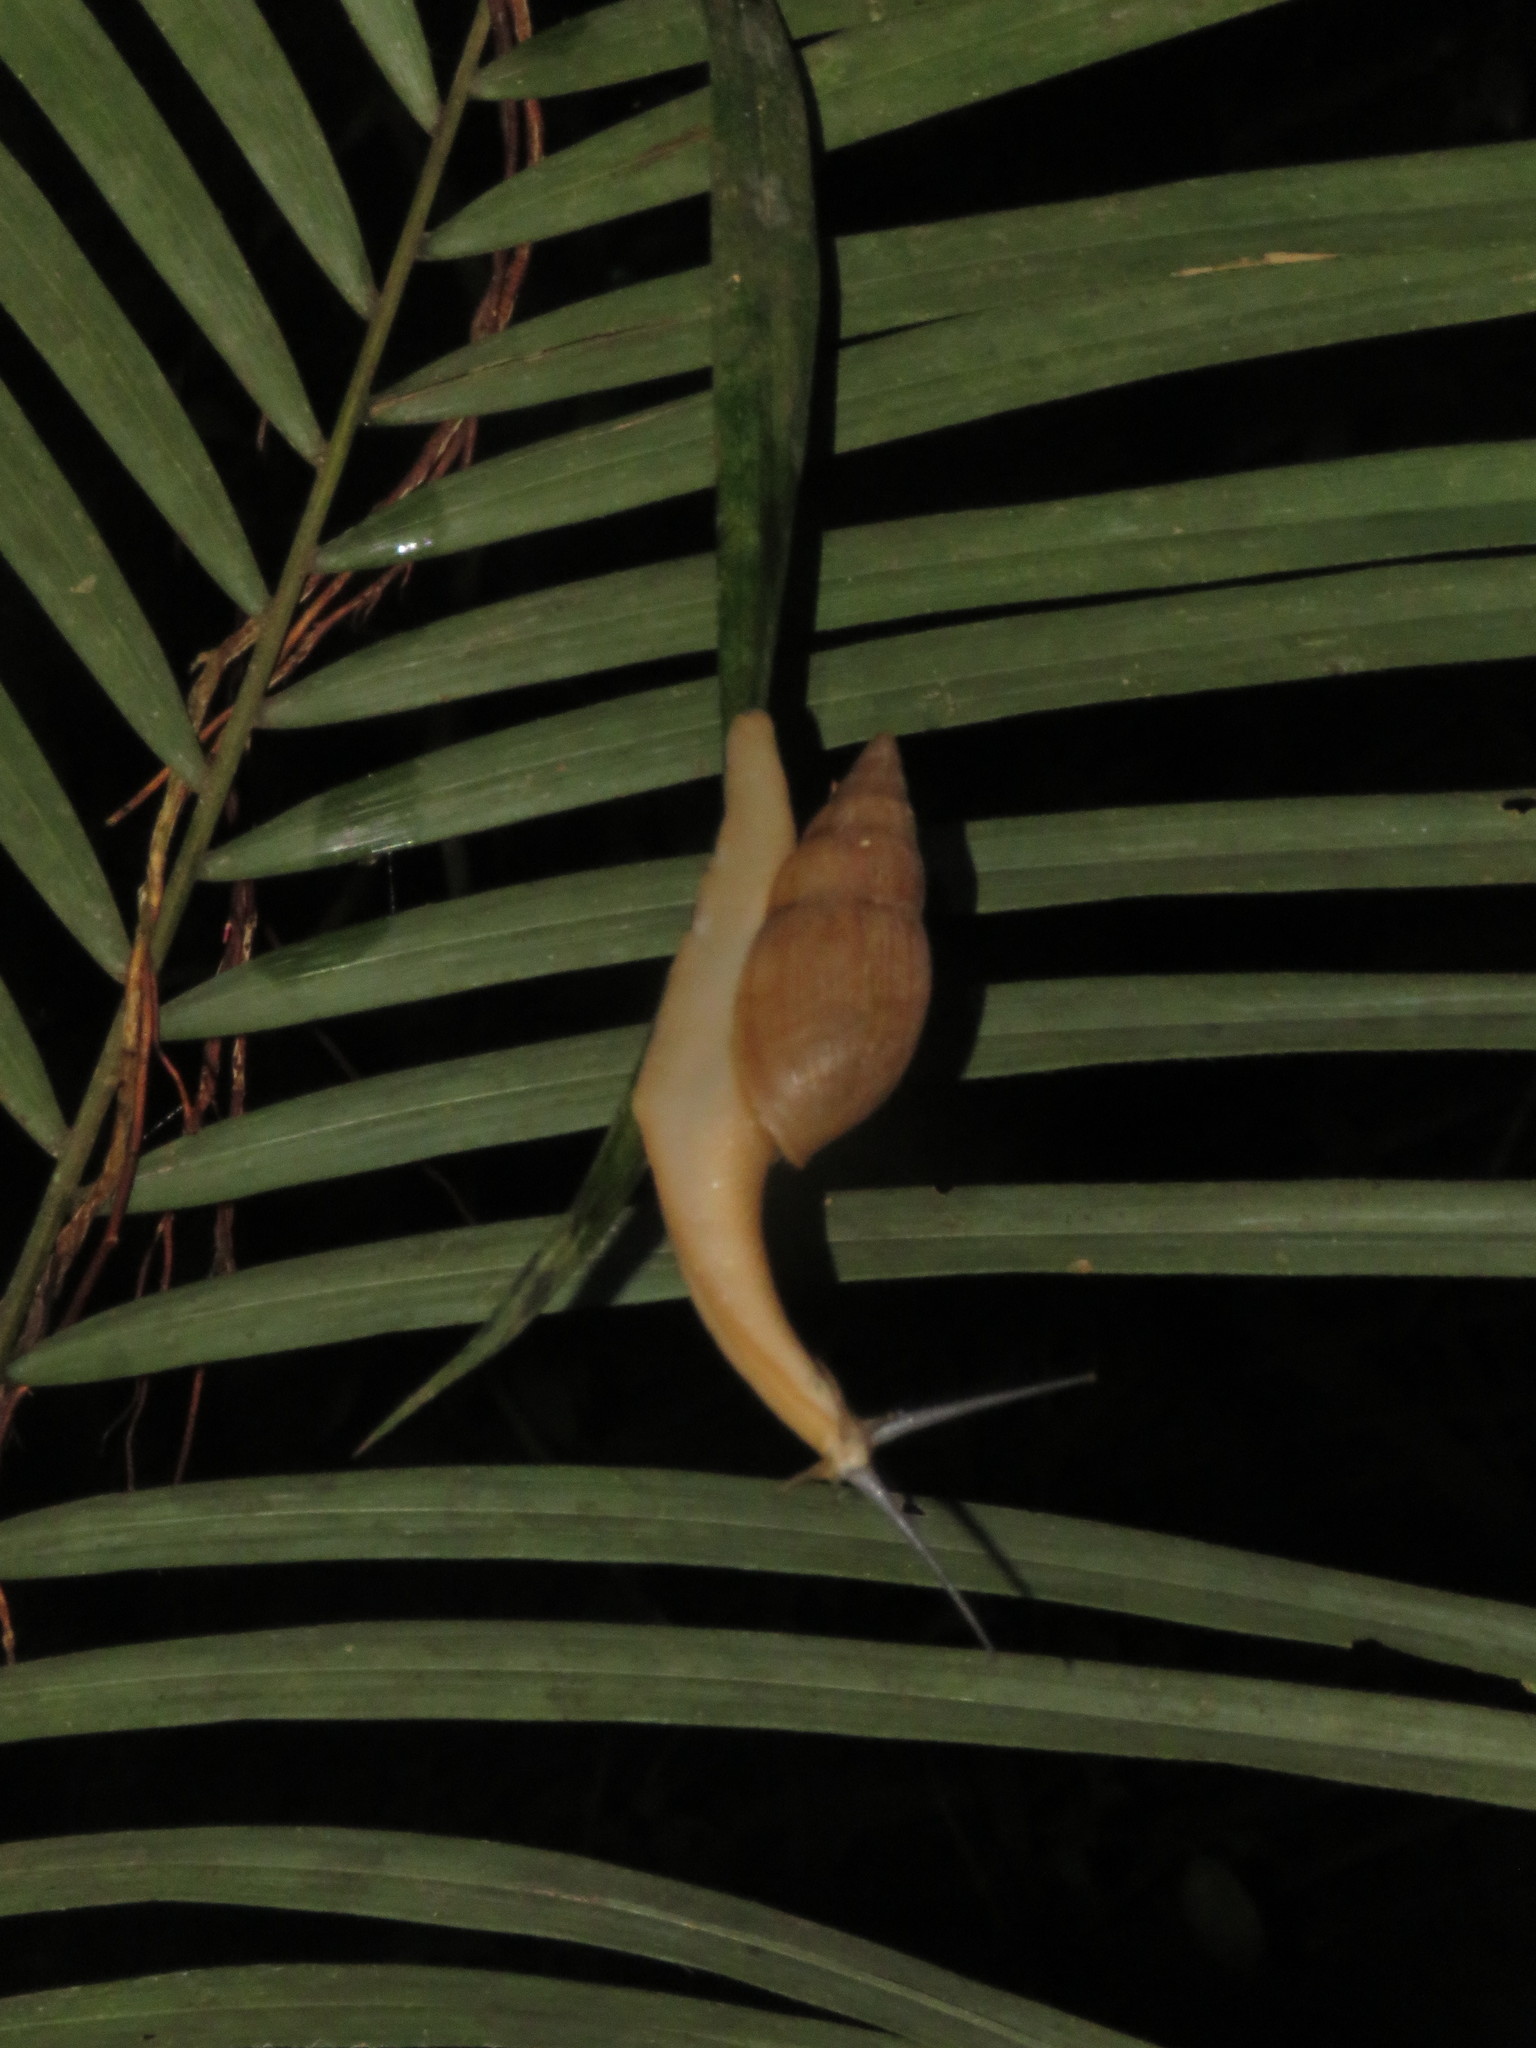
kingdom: Animalia
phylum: Mollusca
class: Gastropoda
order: Stylommatophora
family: Spiraxidae
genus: Euglandina
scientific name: Euglandina striata
